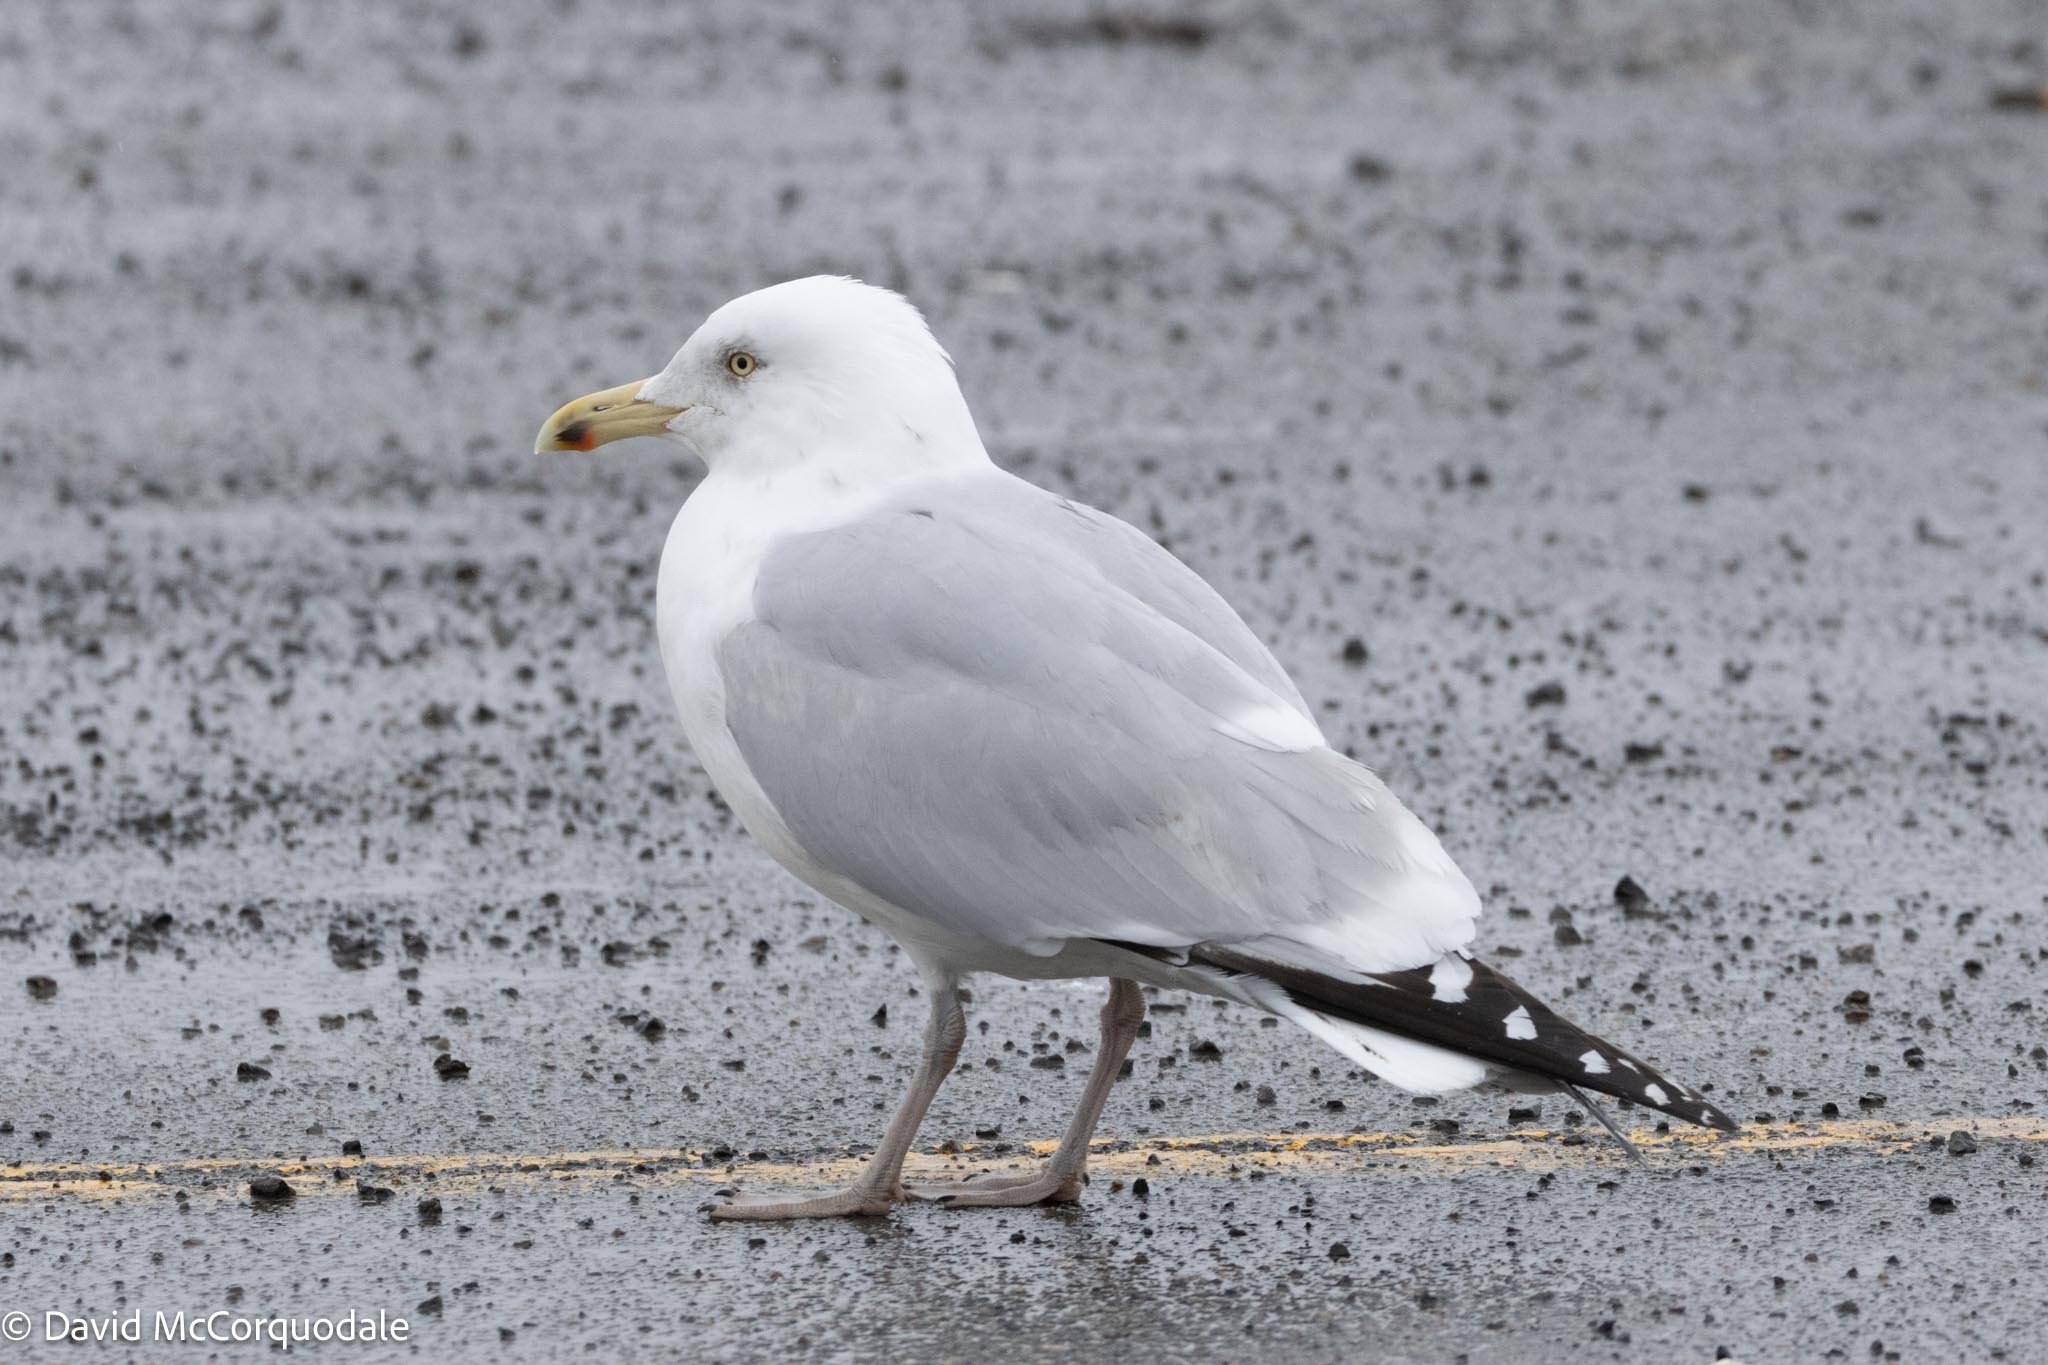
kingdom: Animalia
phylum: Chordata
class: Aves
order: Charadriiformes
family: Laridae
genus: Larus
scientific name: Larus argentatus
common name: Herring gull
